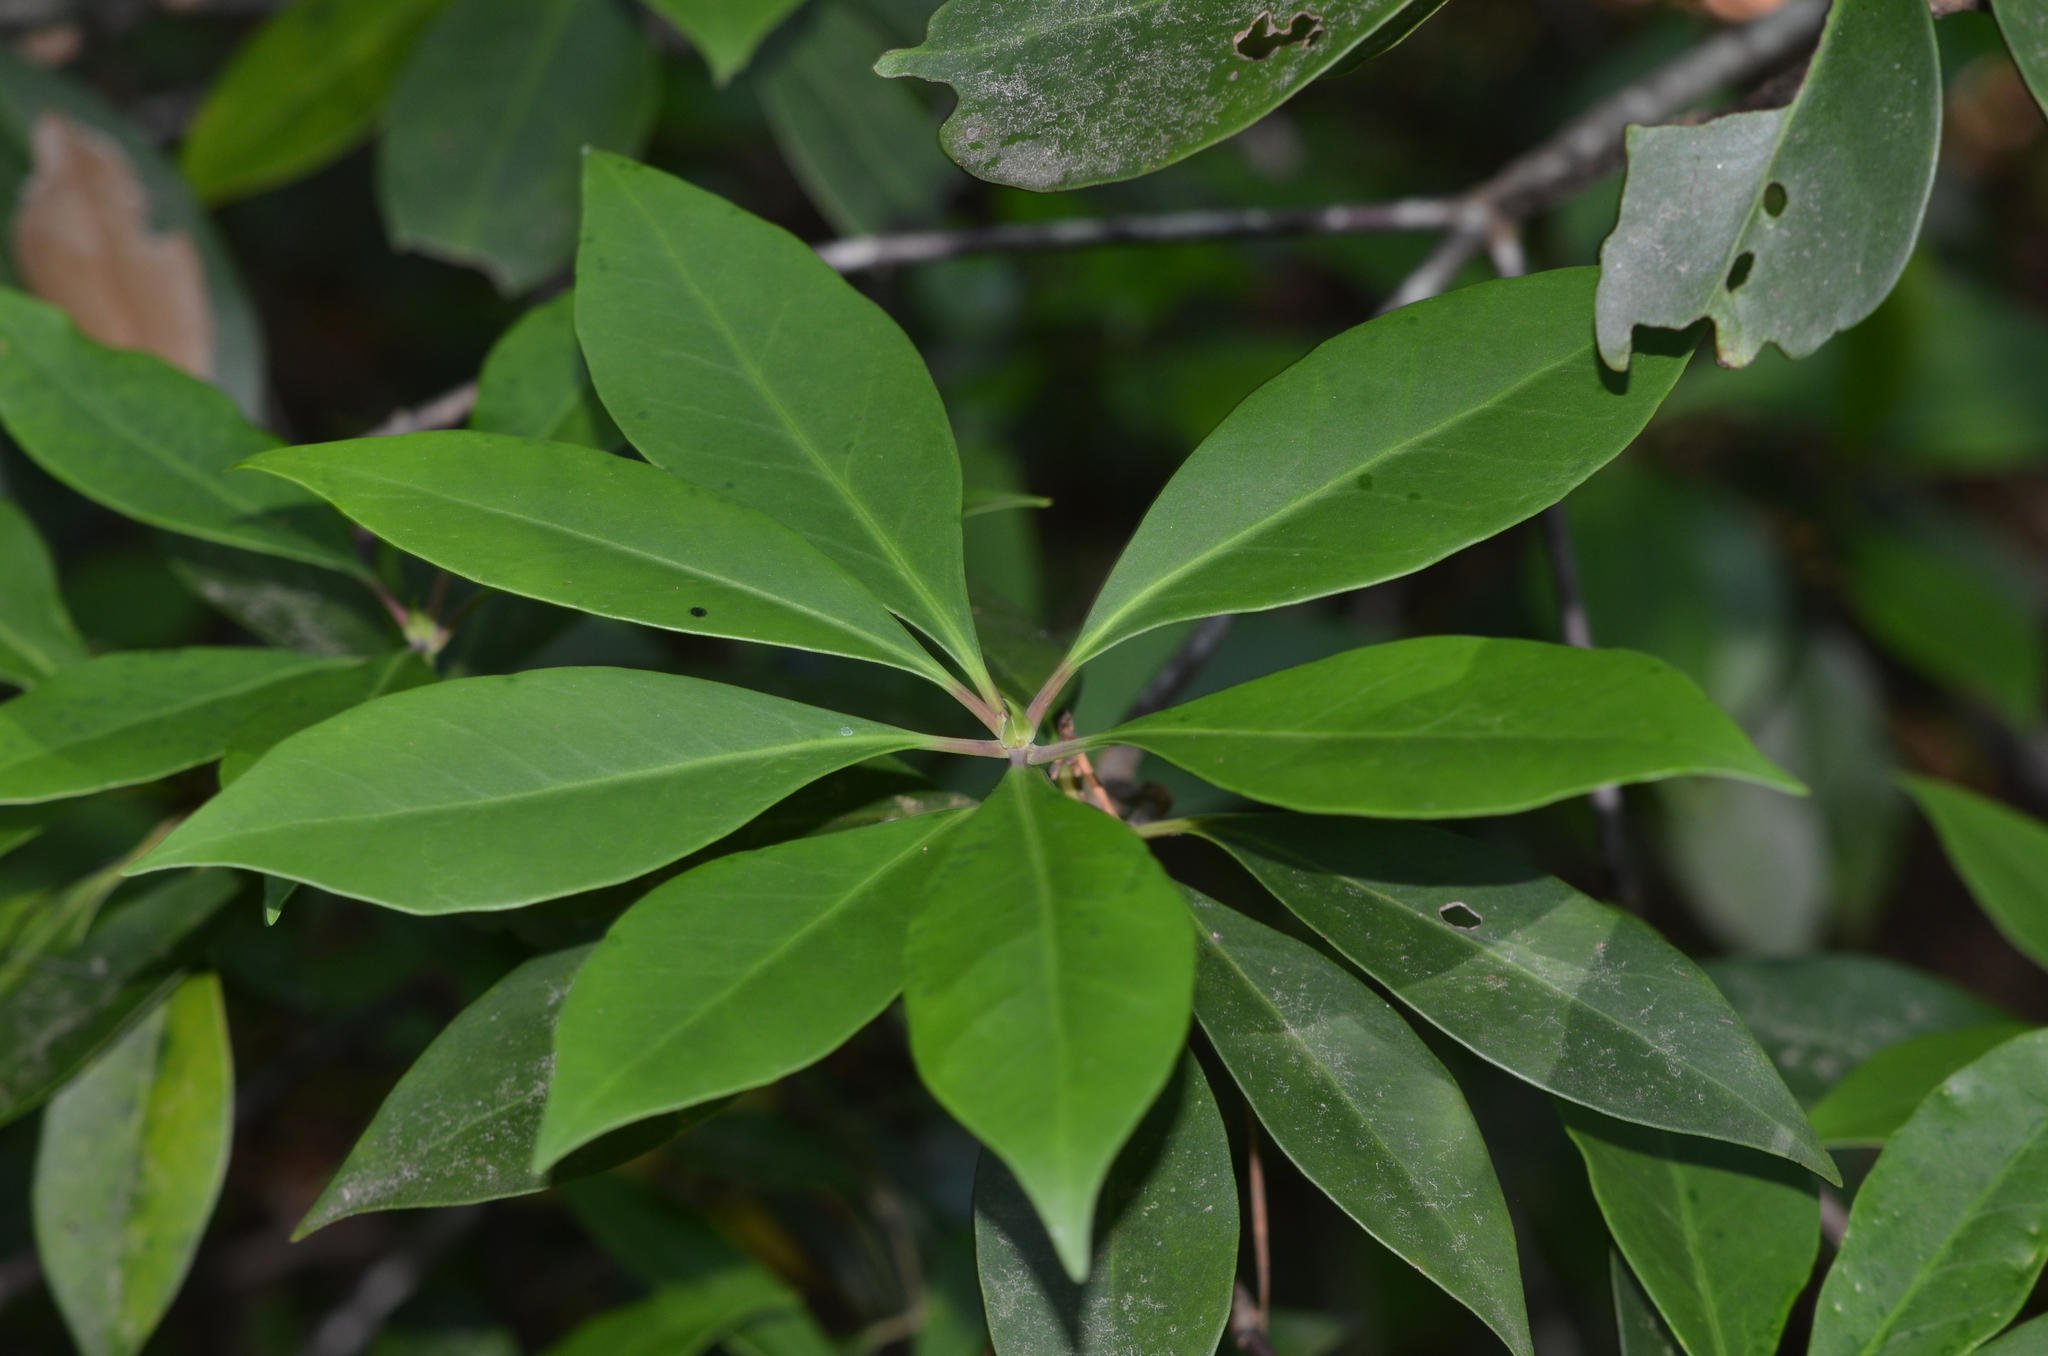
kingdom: Plantae
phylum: Tracheophyta
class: Magnoliopsida
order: Austrobaileyales
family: Schisandraceae
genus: Illicium
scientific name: Illicium floridanum
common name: Florida anisetree
